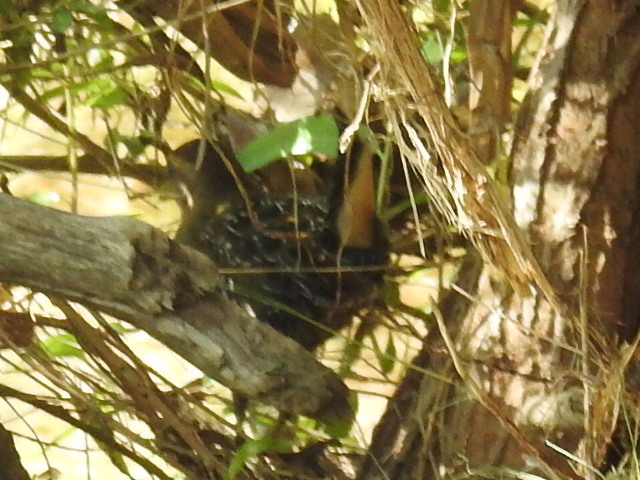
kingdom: Animalia
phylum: Chordata
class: Aves
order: Gruiformes
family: Rallidae
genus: Porzana
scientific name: Porzana carolina
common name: Sora
